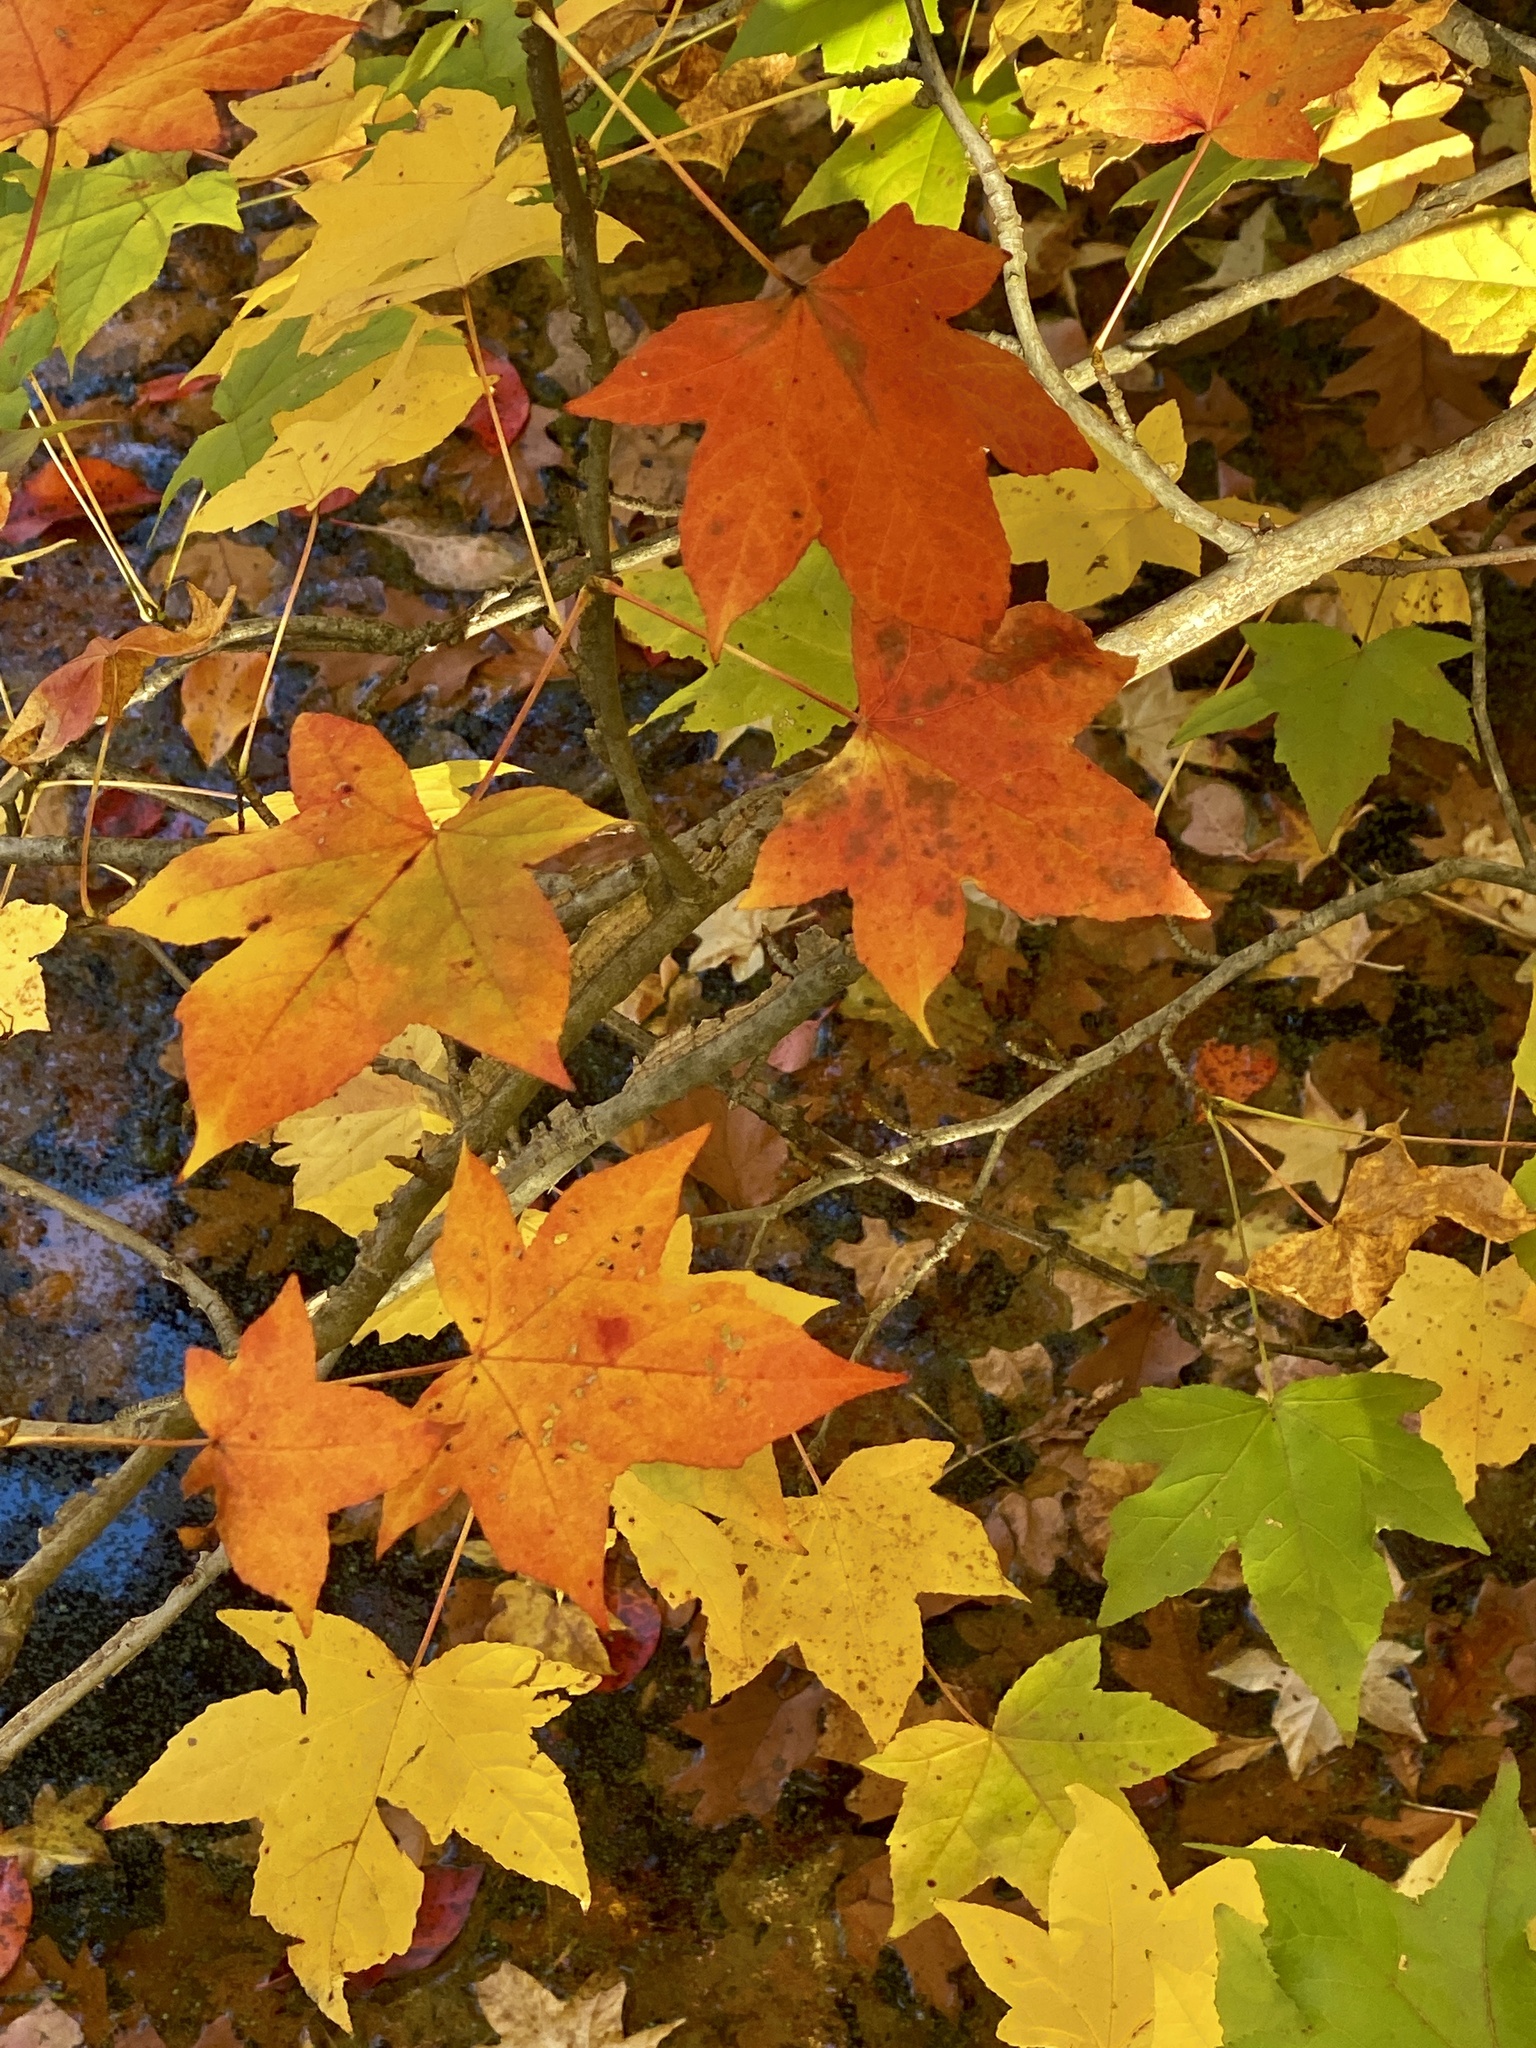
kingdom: Plantae
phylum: Tracheophyta
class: Magnoliopsida
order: Saxifragales
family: Altingiaceae
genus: Liquidambar
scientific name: Liquidambar styraciflua
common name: Sweet gum
